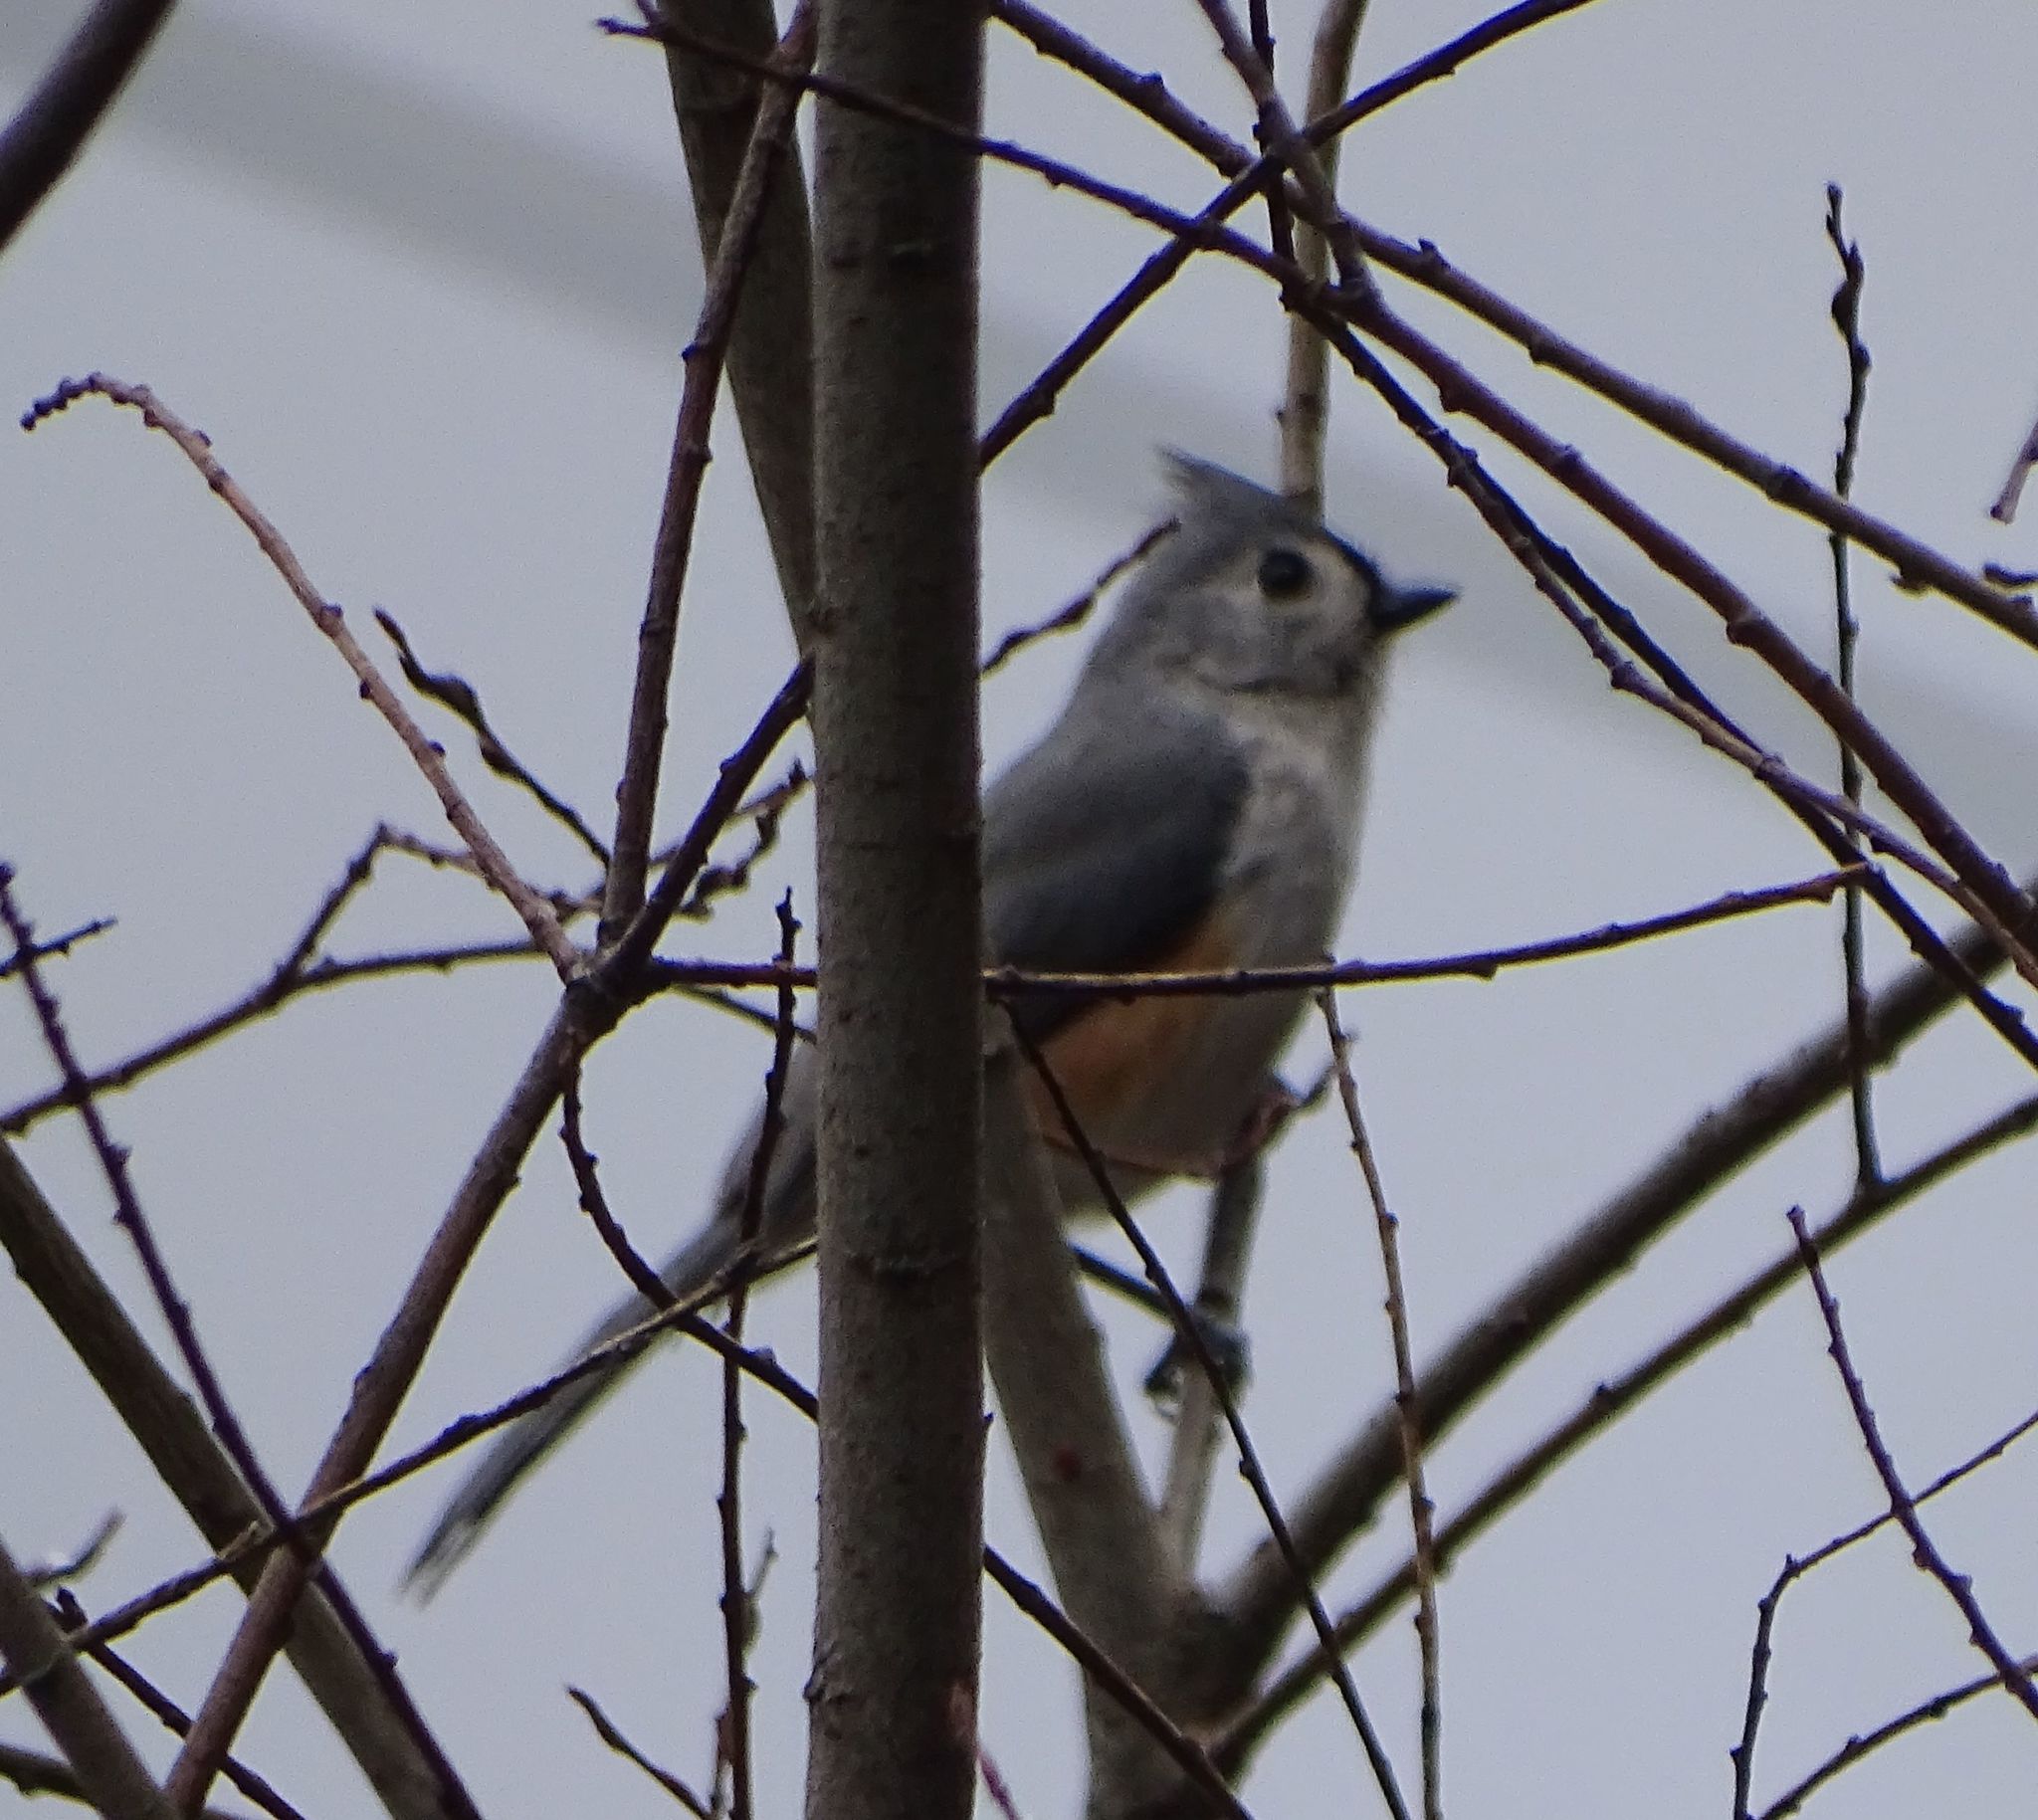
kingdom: Animalia
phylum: Chordata
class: Aves
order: Passeriformes
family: Paridae
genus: Baeolophus
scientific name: Baeolophus bicolor
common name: Tufted titmouse
